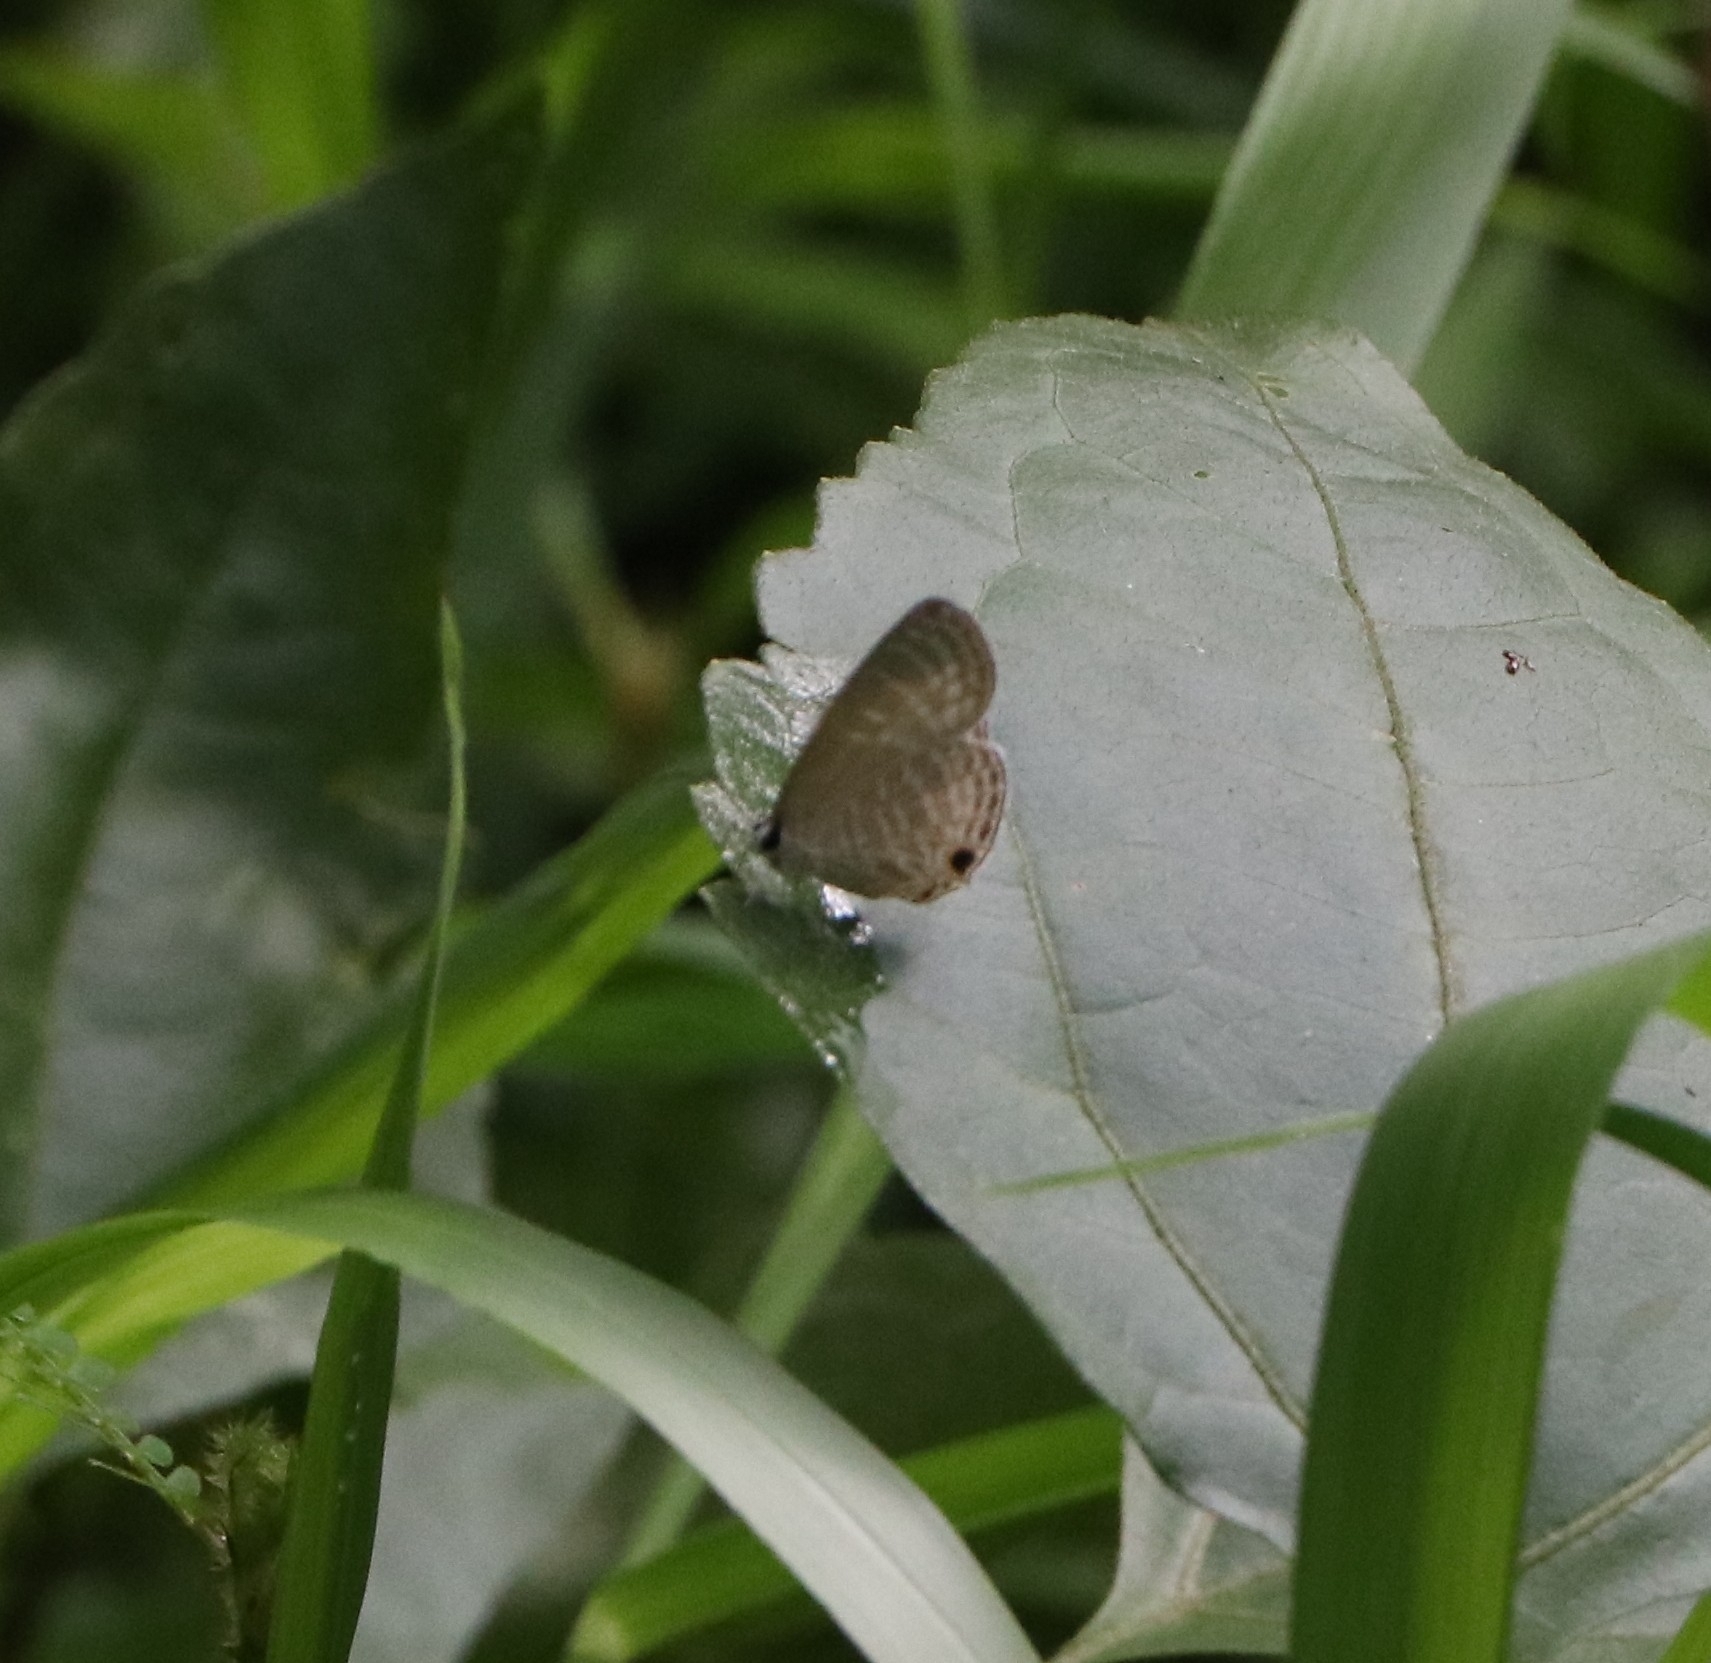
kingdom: Animalia
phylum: Arthropoda
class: Insecta
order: Lepidoptera
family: Lycaenidae
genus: Jamides
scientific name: Jamides celeno
